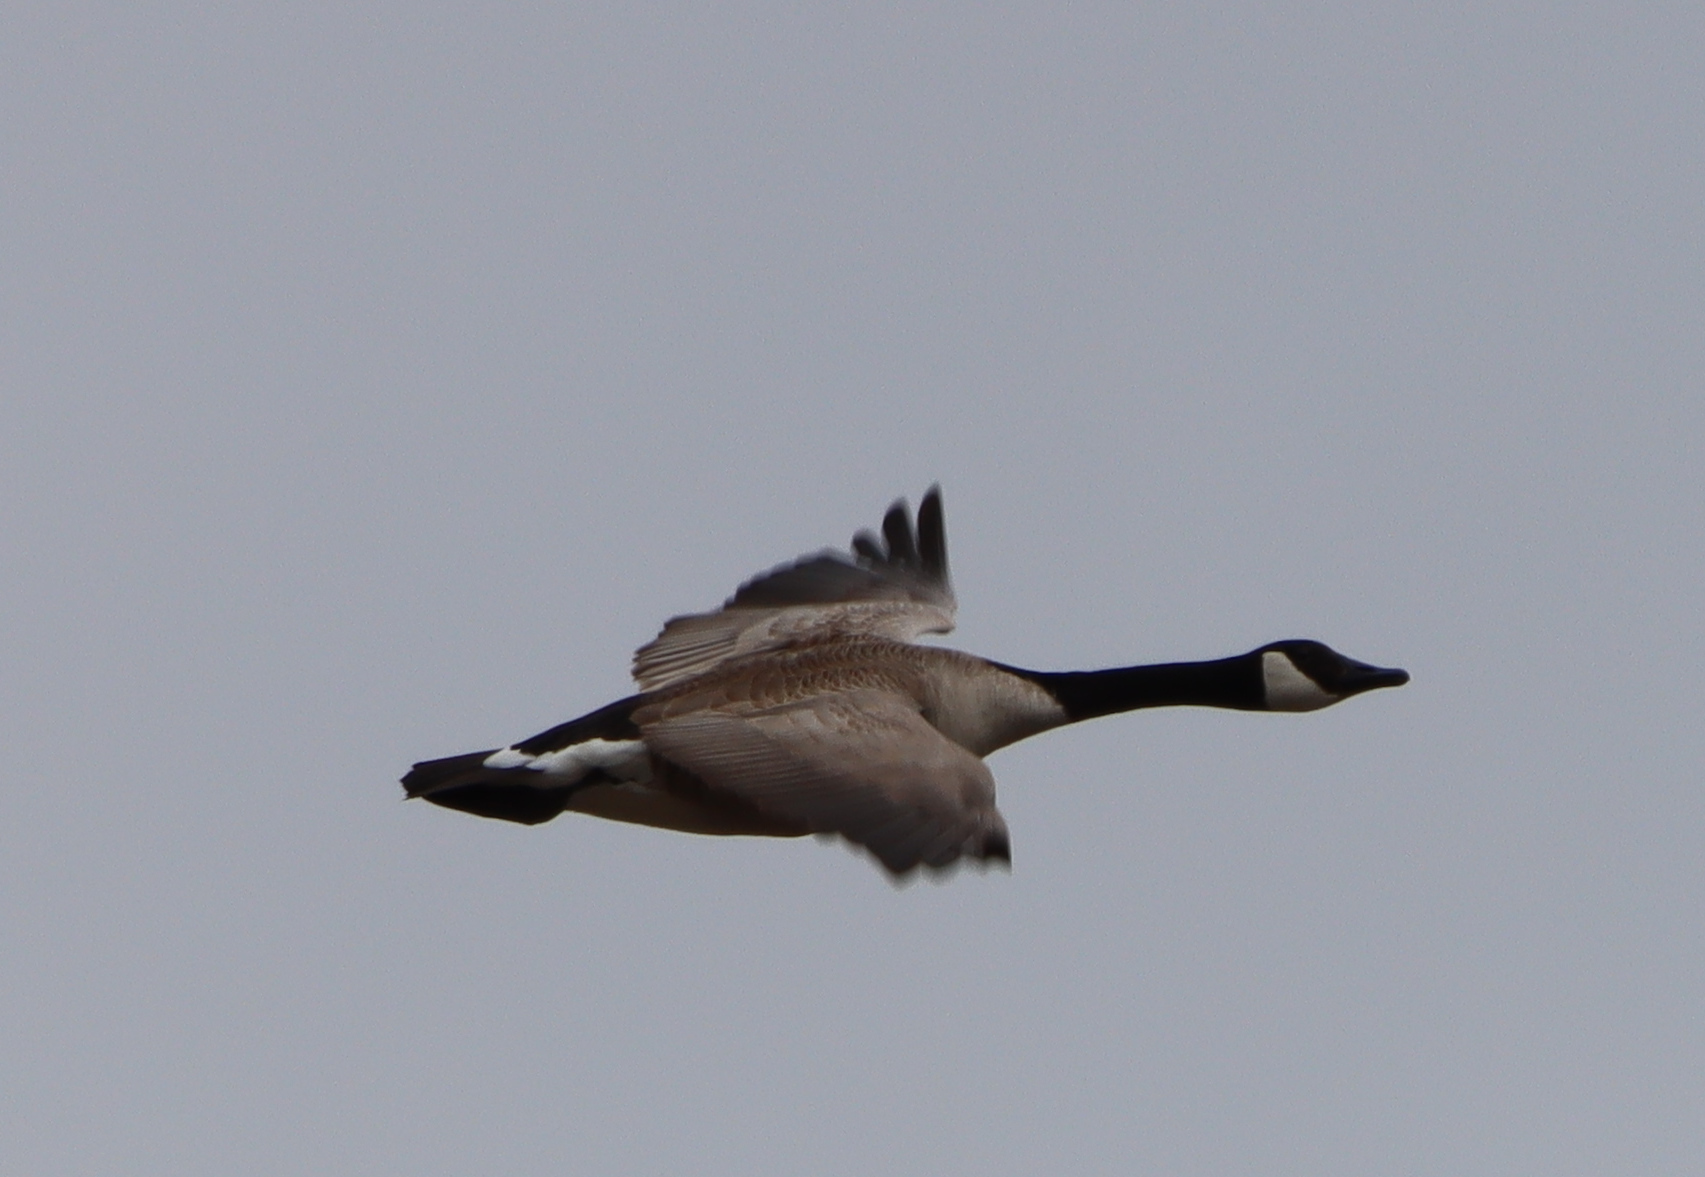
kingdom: Animalia
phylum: Chordata
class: Aves
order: Anseriformes
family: Anatidae
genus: Branta
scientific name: Branta canadensis
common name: Canada goose
